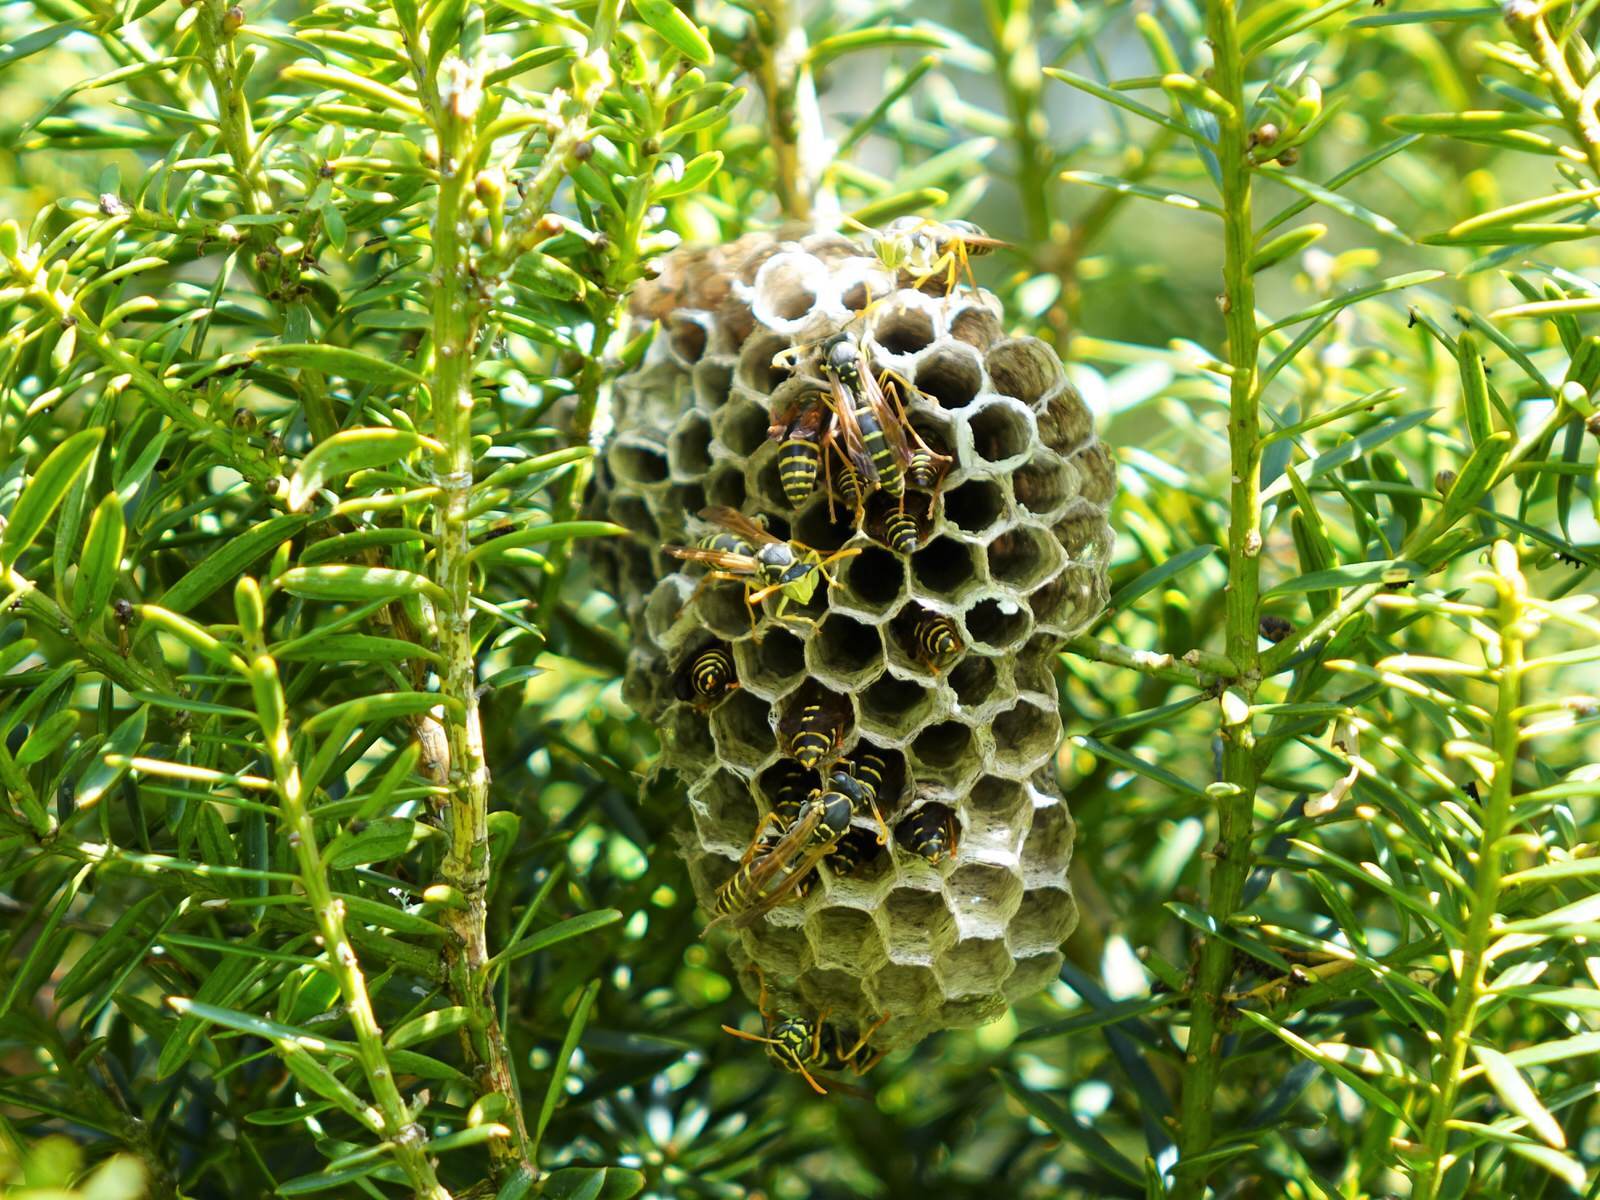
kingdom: Animalia
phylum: Arthropoda
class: Insecta
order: Hymenoptera
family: Eumenidae
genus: Polistes
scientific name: Polistes chinensis
